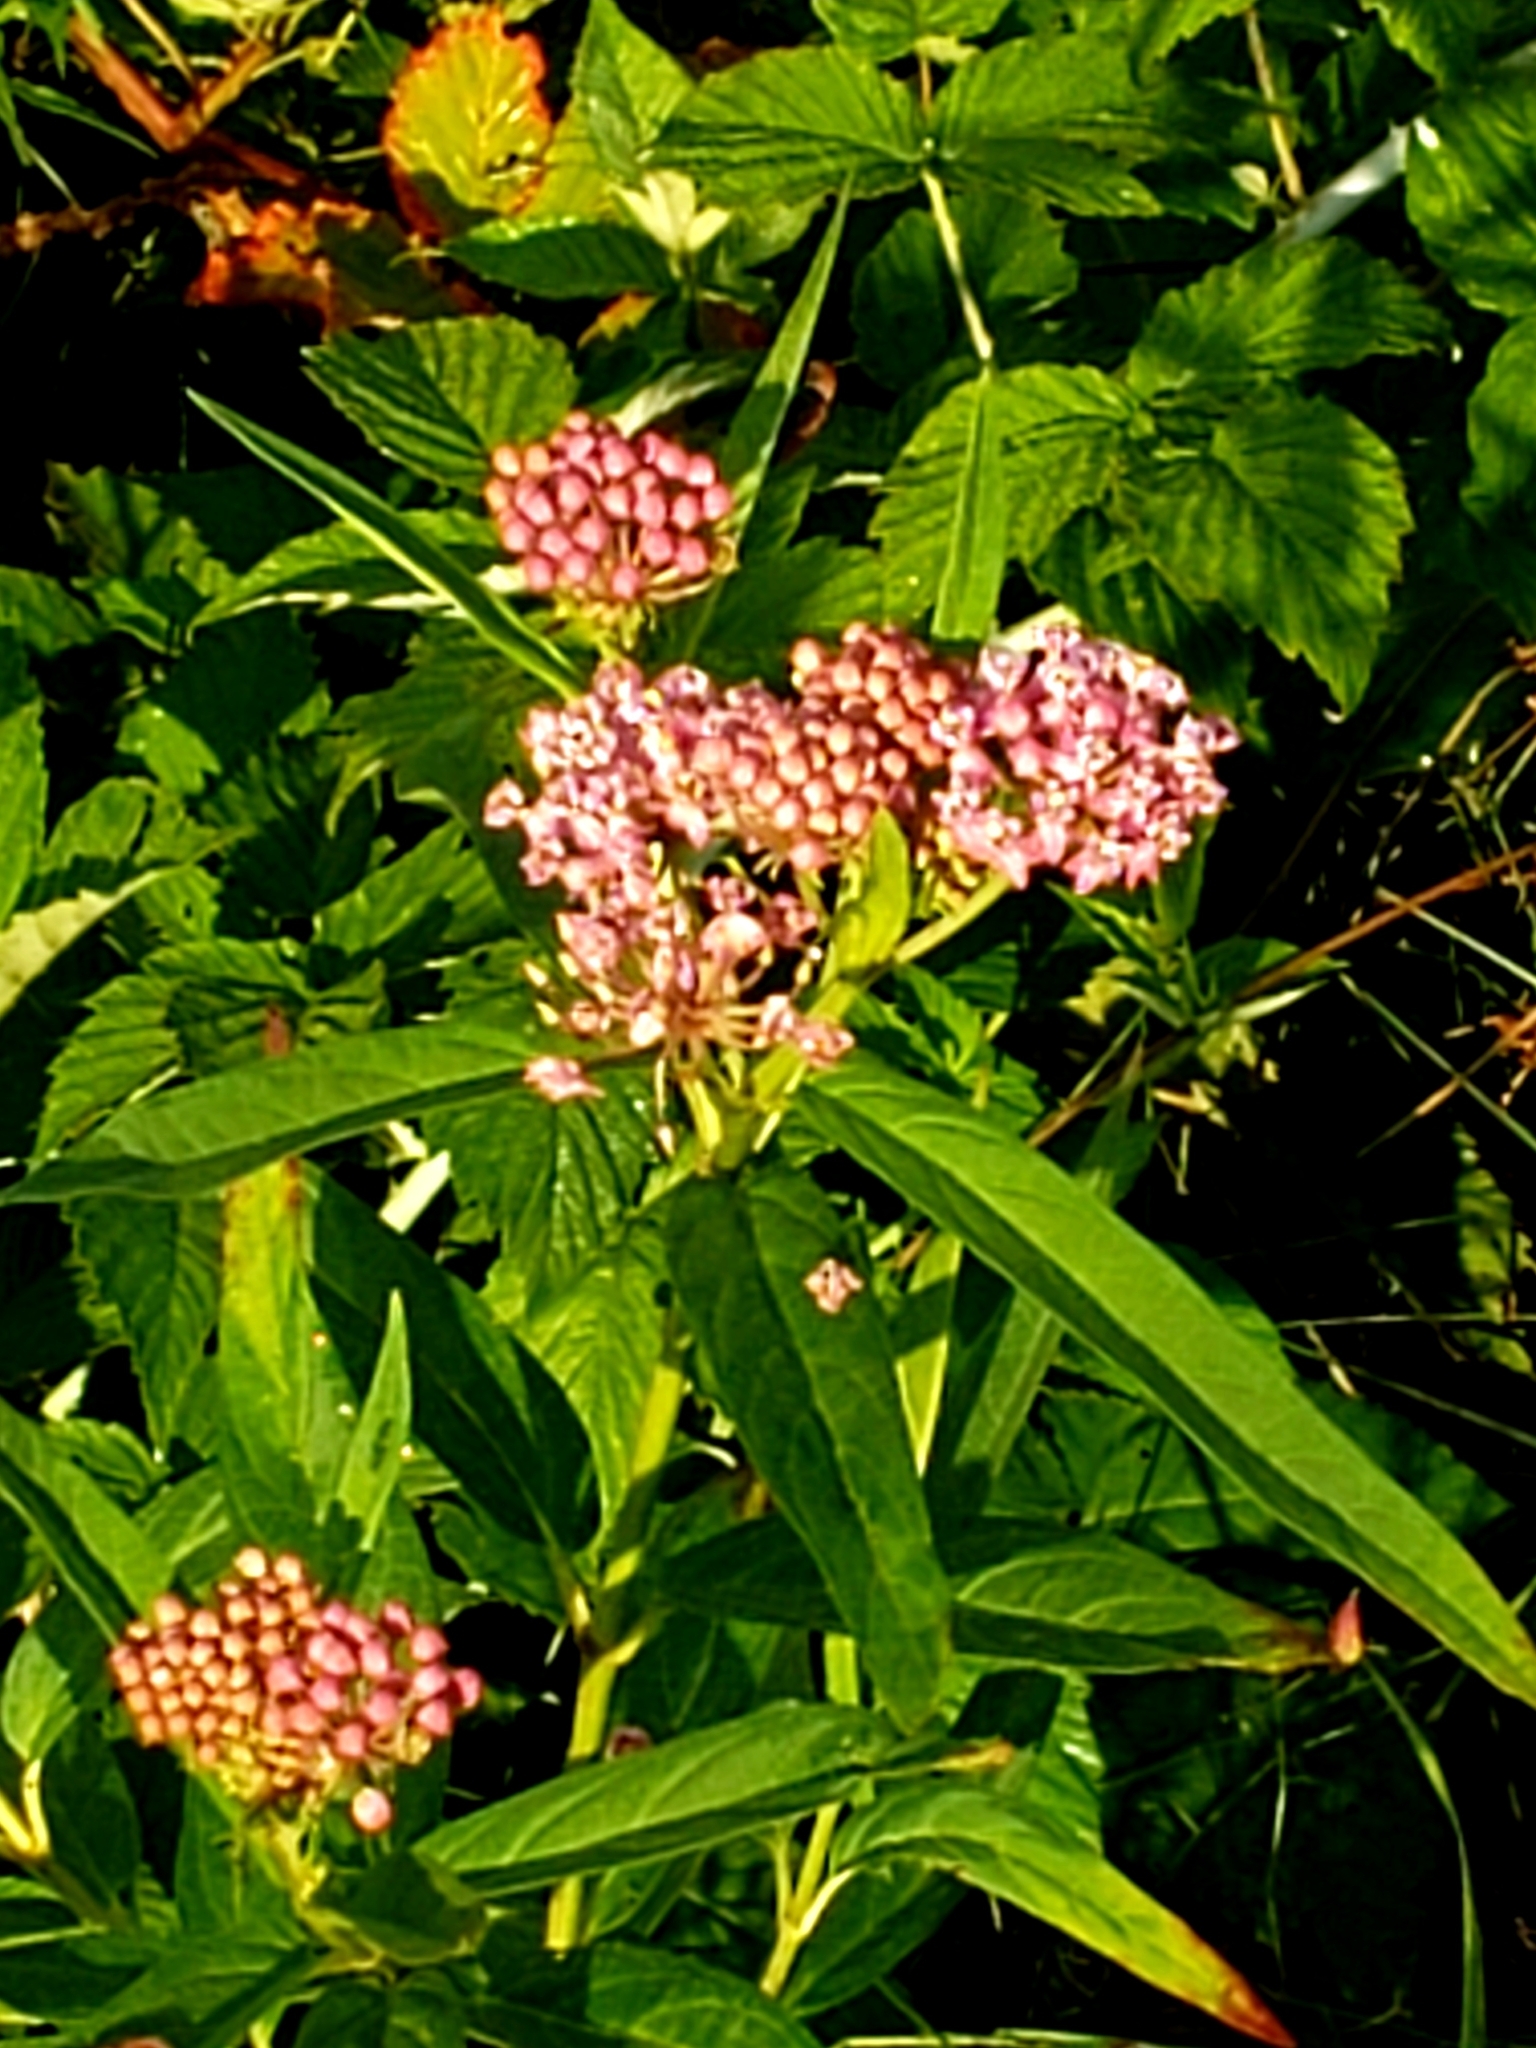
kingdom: Plantae
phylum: Tracheophyta
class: Magnoliopsida
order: Gentianales
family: Apocynaceae
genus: Asclepias
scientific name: Asclepias incarnata
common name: Swamp milkweed
